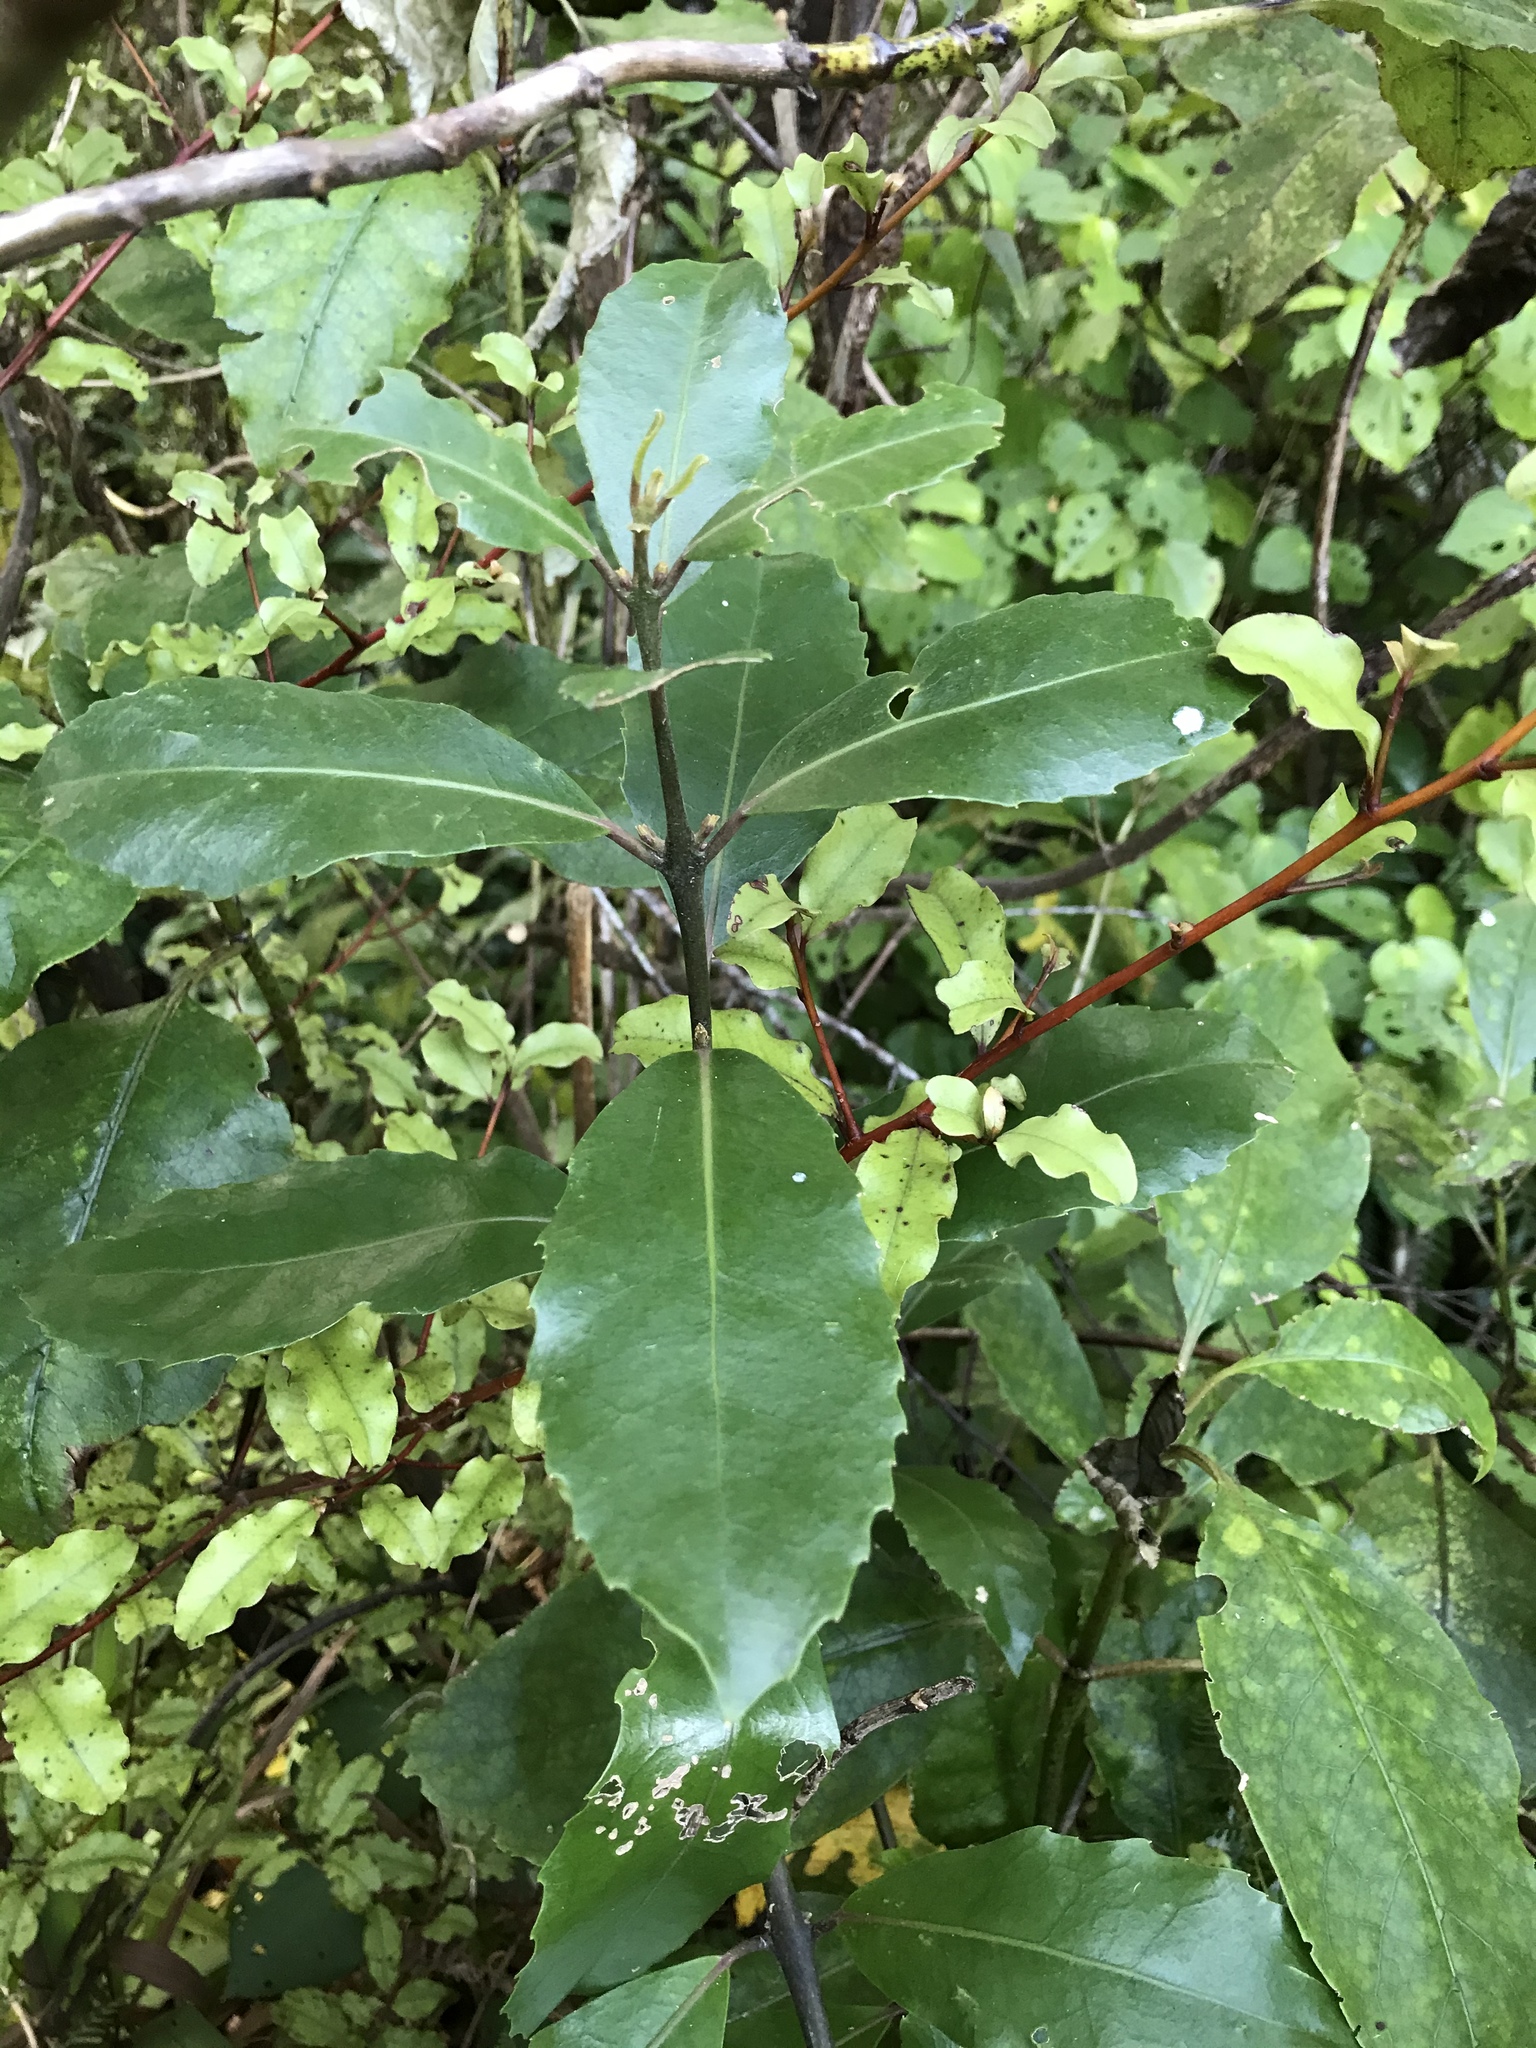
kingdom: Plantae
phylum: Tracheophyta
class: Magnoliopsida
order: Laurales
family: Monimiaceae
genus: Hedycarya
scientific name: Hedycarya arborea
